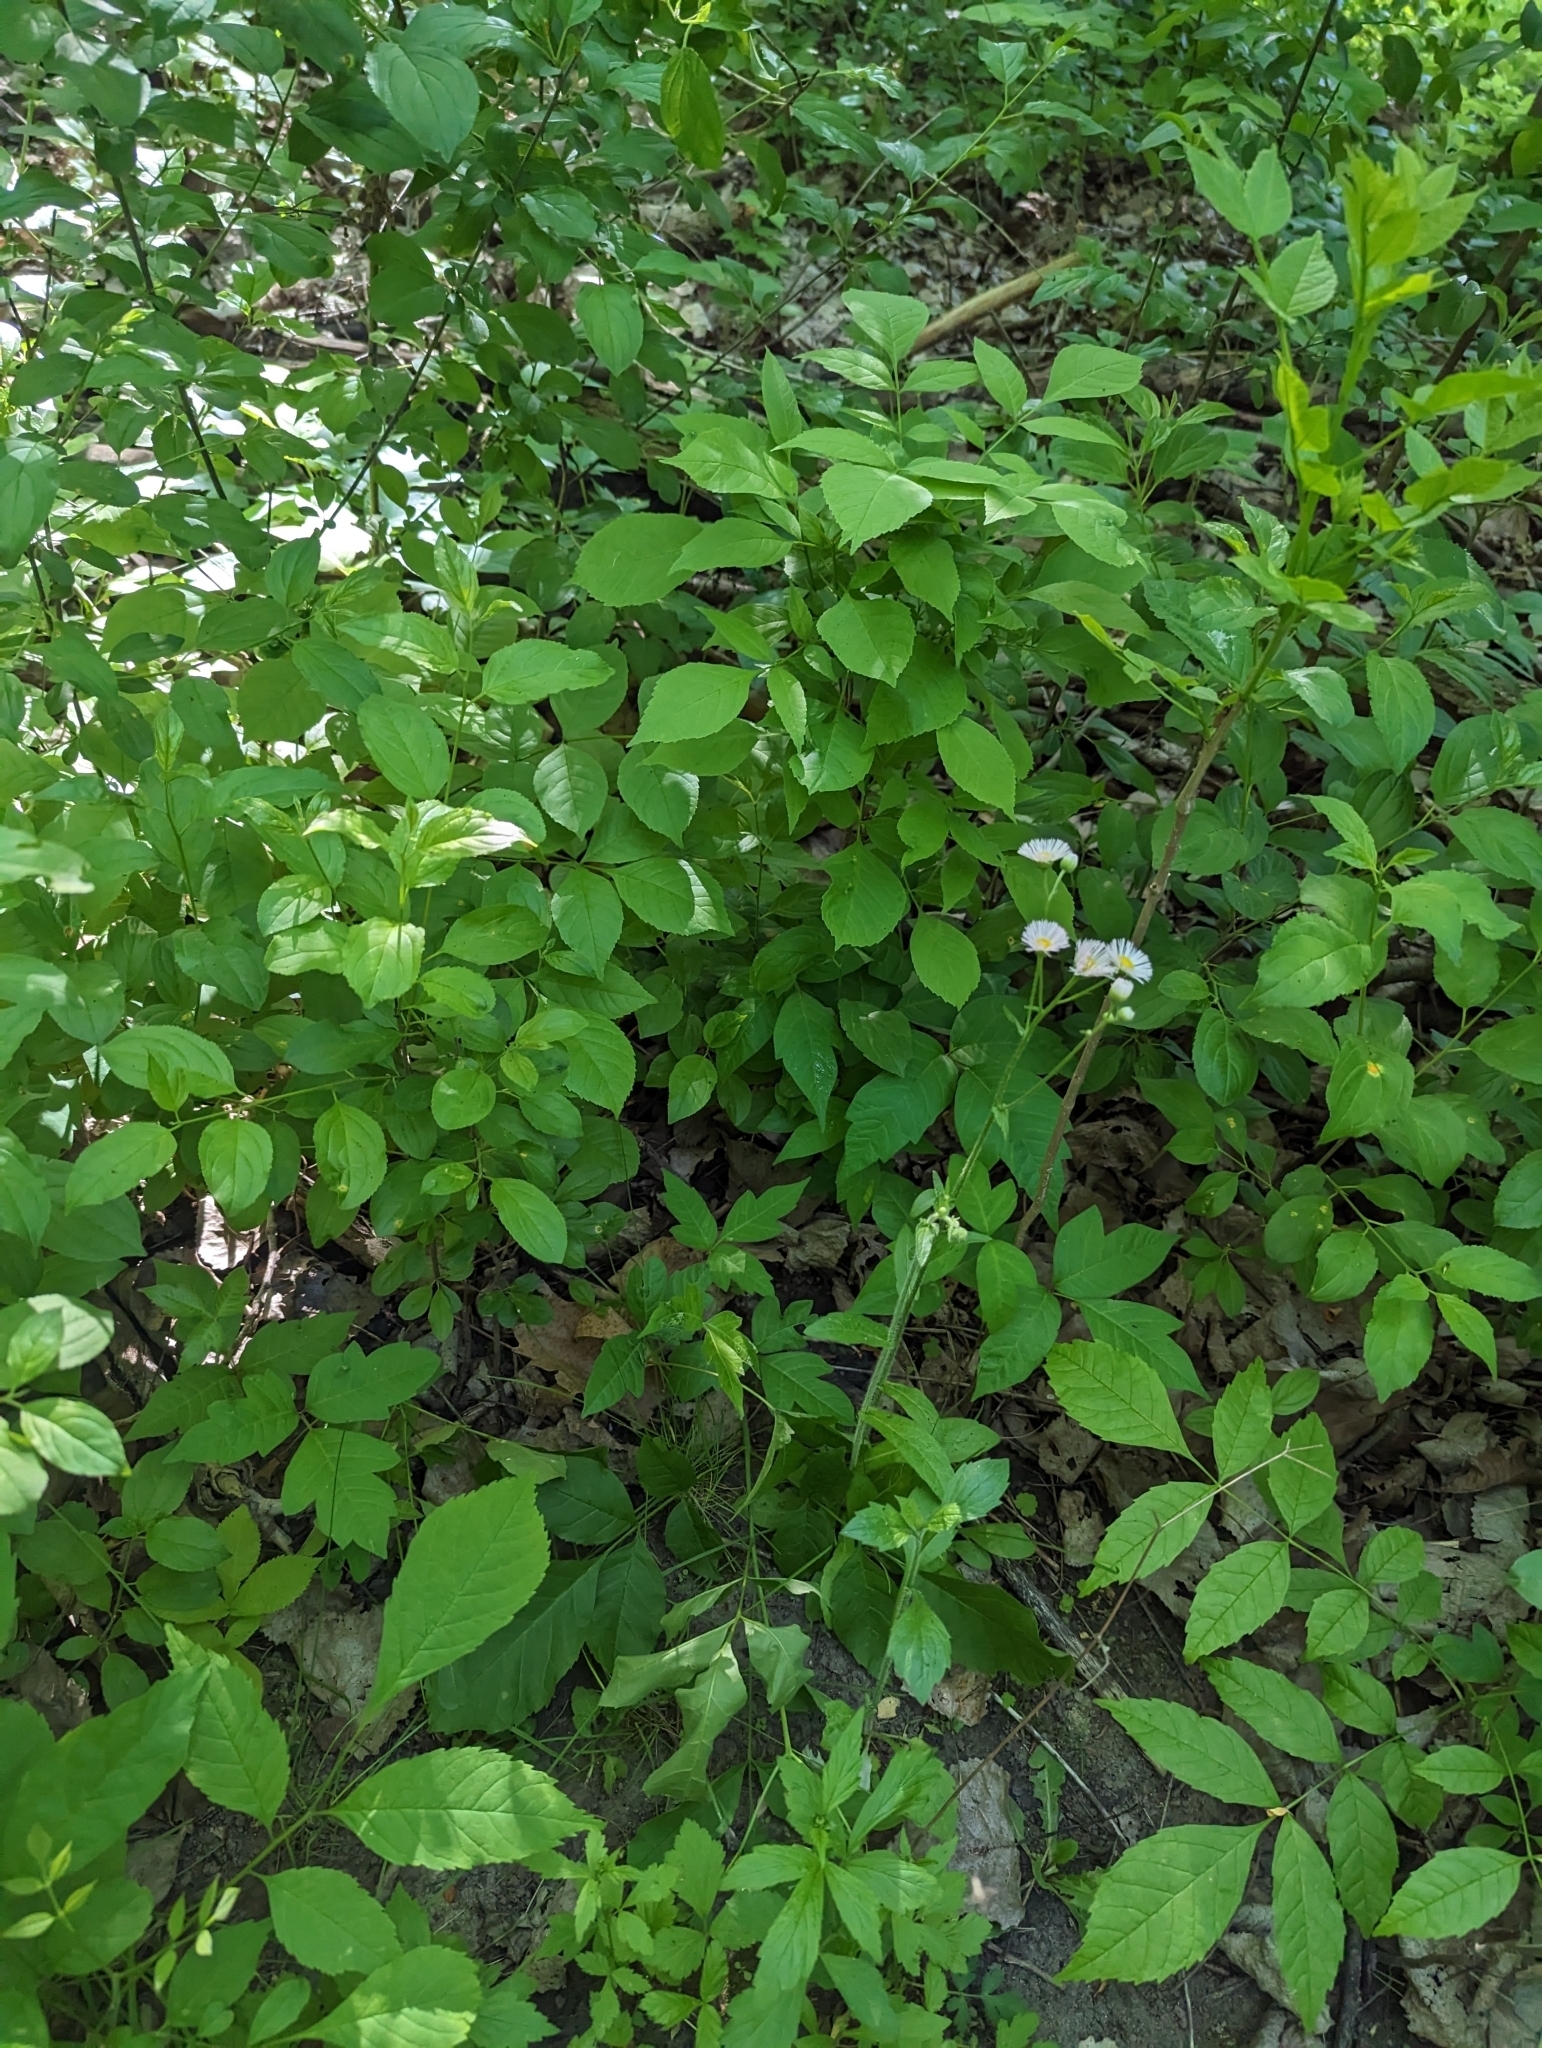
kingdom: Plantae
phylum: Tracheophyta
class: Magnoliopsida
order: Asterales
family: Asteraceae
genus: Erigeron
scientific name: Erigeron philadelphicus
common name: Robin's-plantain
